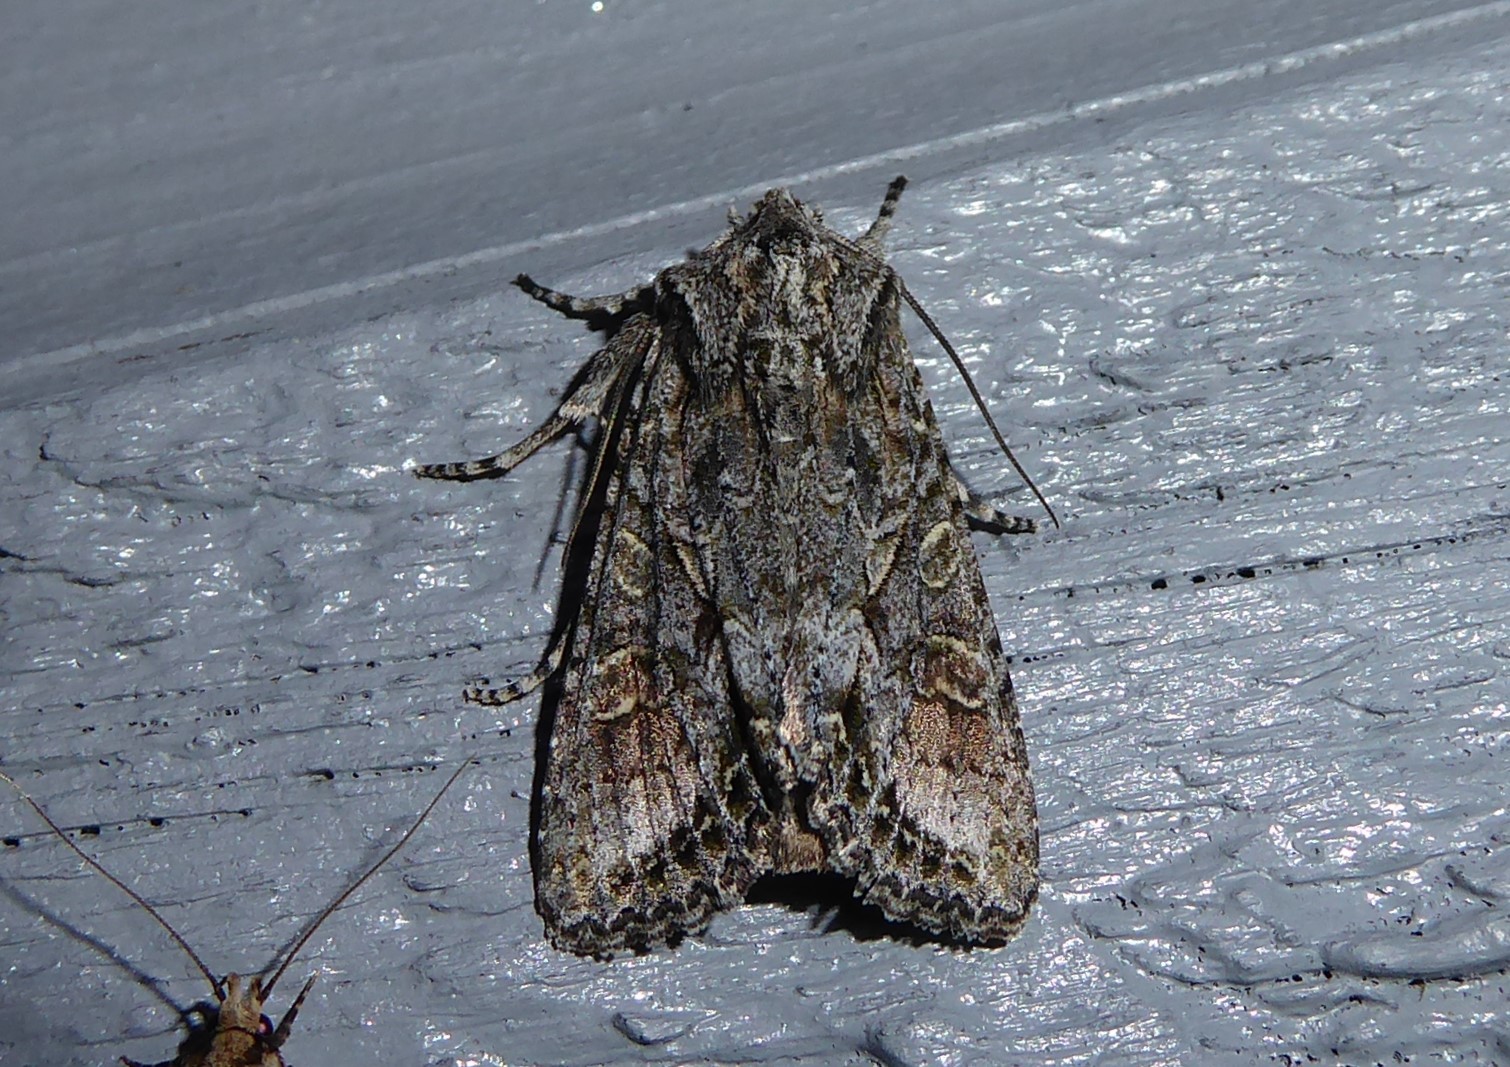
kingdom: Animalia
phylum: Arthropoda
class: Insecta
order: Lepidoptera
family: Noctuidae
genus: Ichneutica
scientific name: Ichneutica mutans
